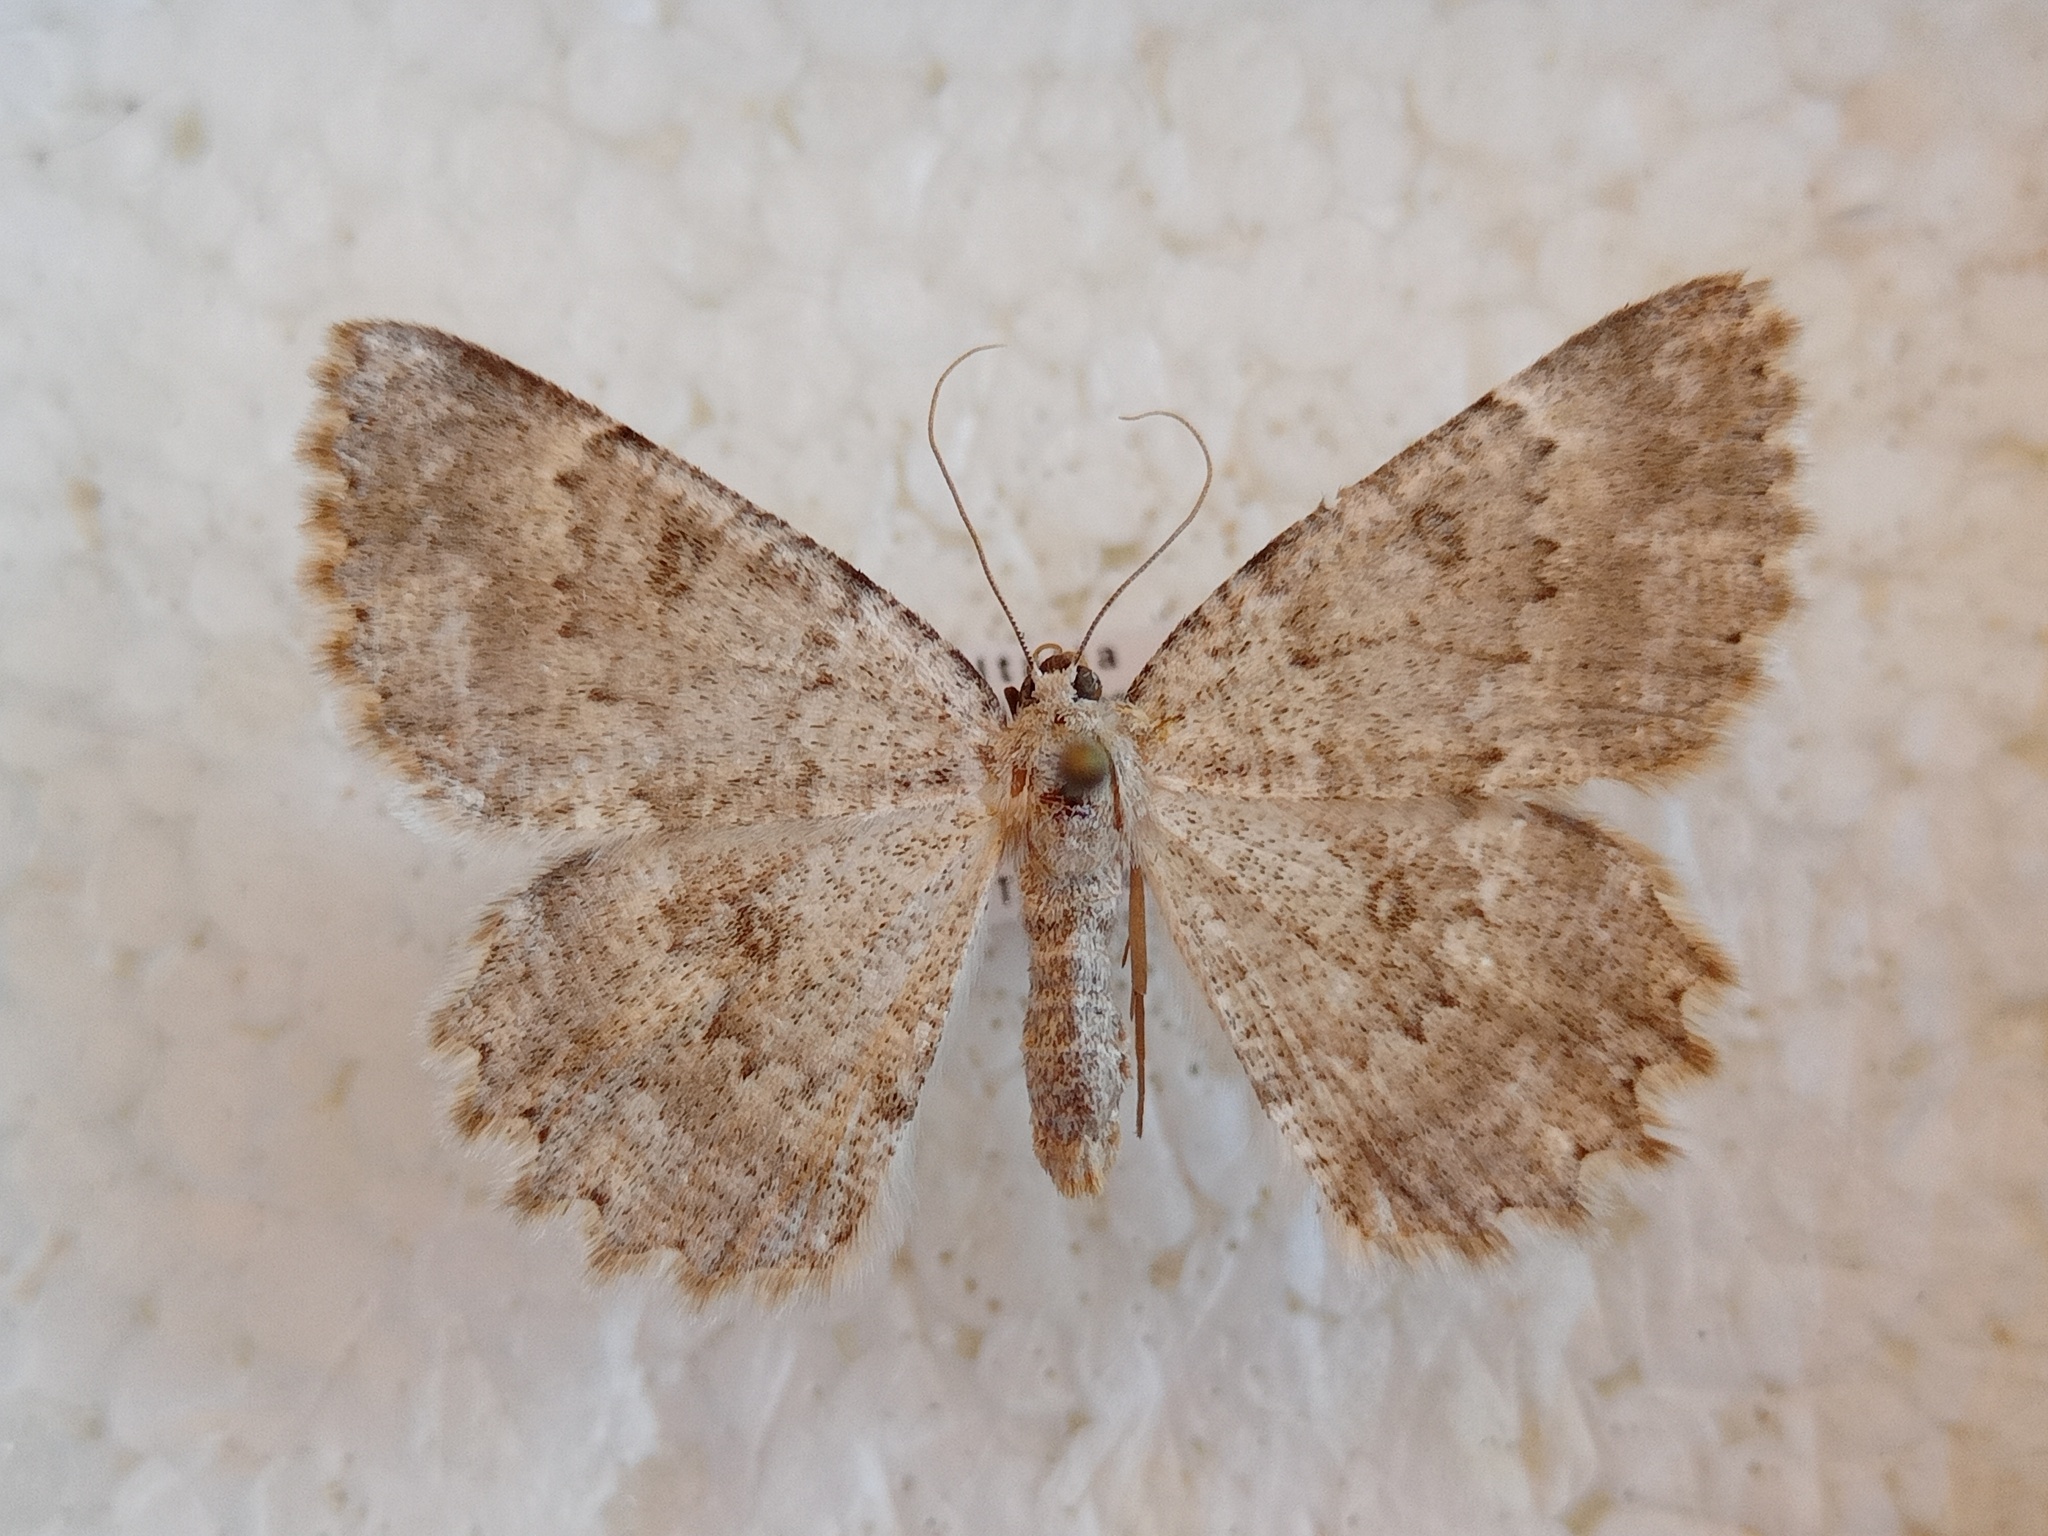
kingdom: Animalia
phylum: Arthropoda
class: Insecta
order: Lepidoptera
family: Geometridae
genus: Charissa
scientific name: Charissa pullata
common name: Limestone annulet
